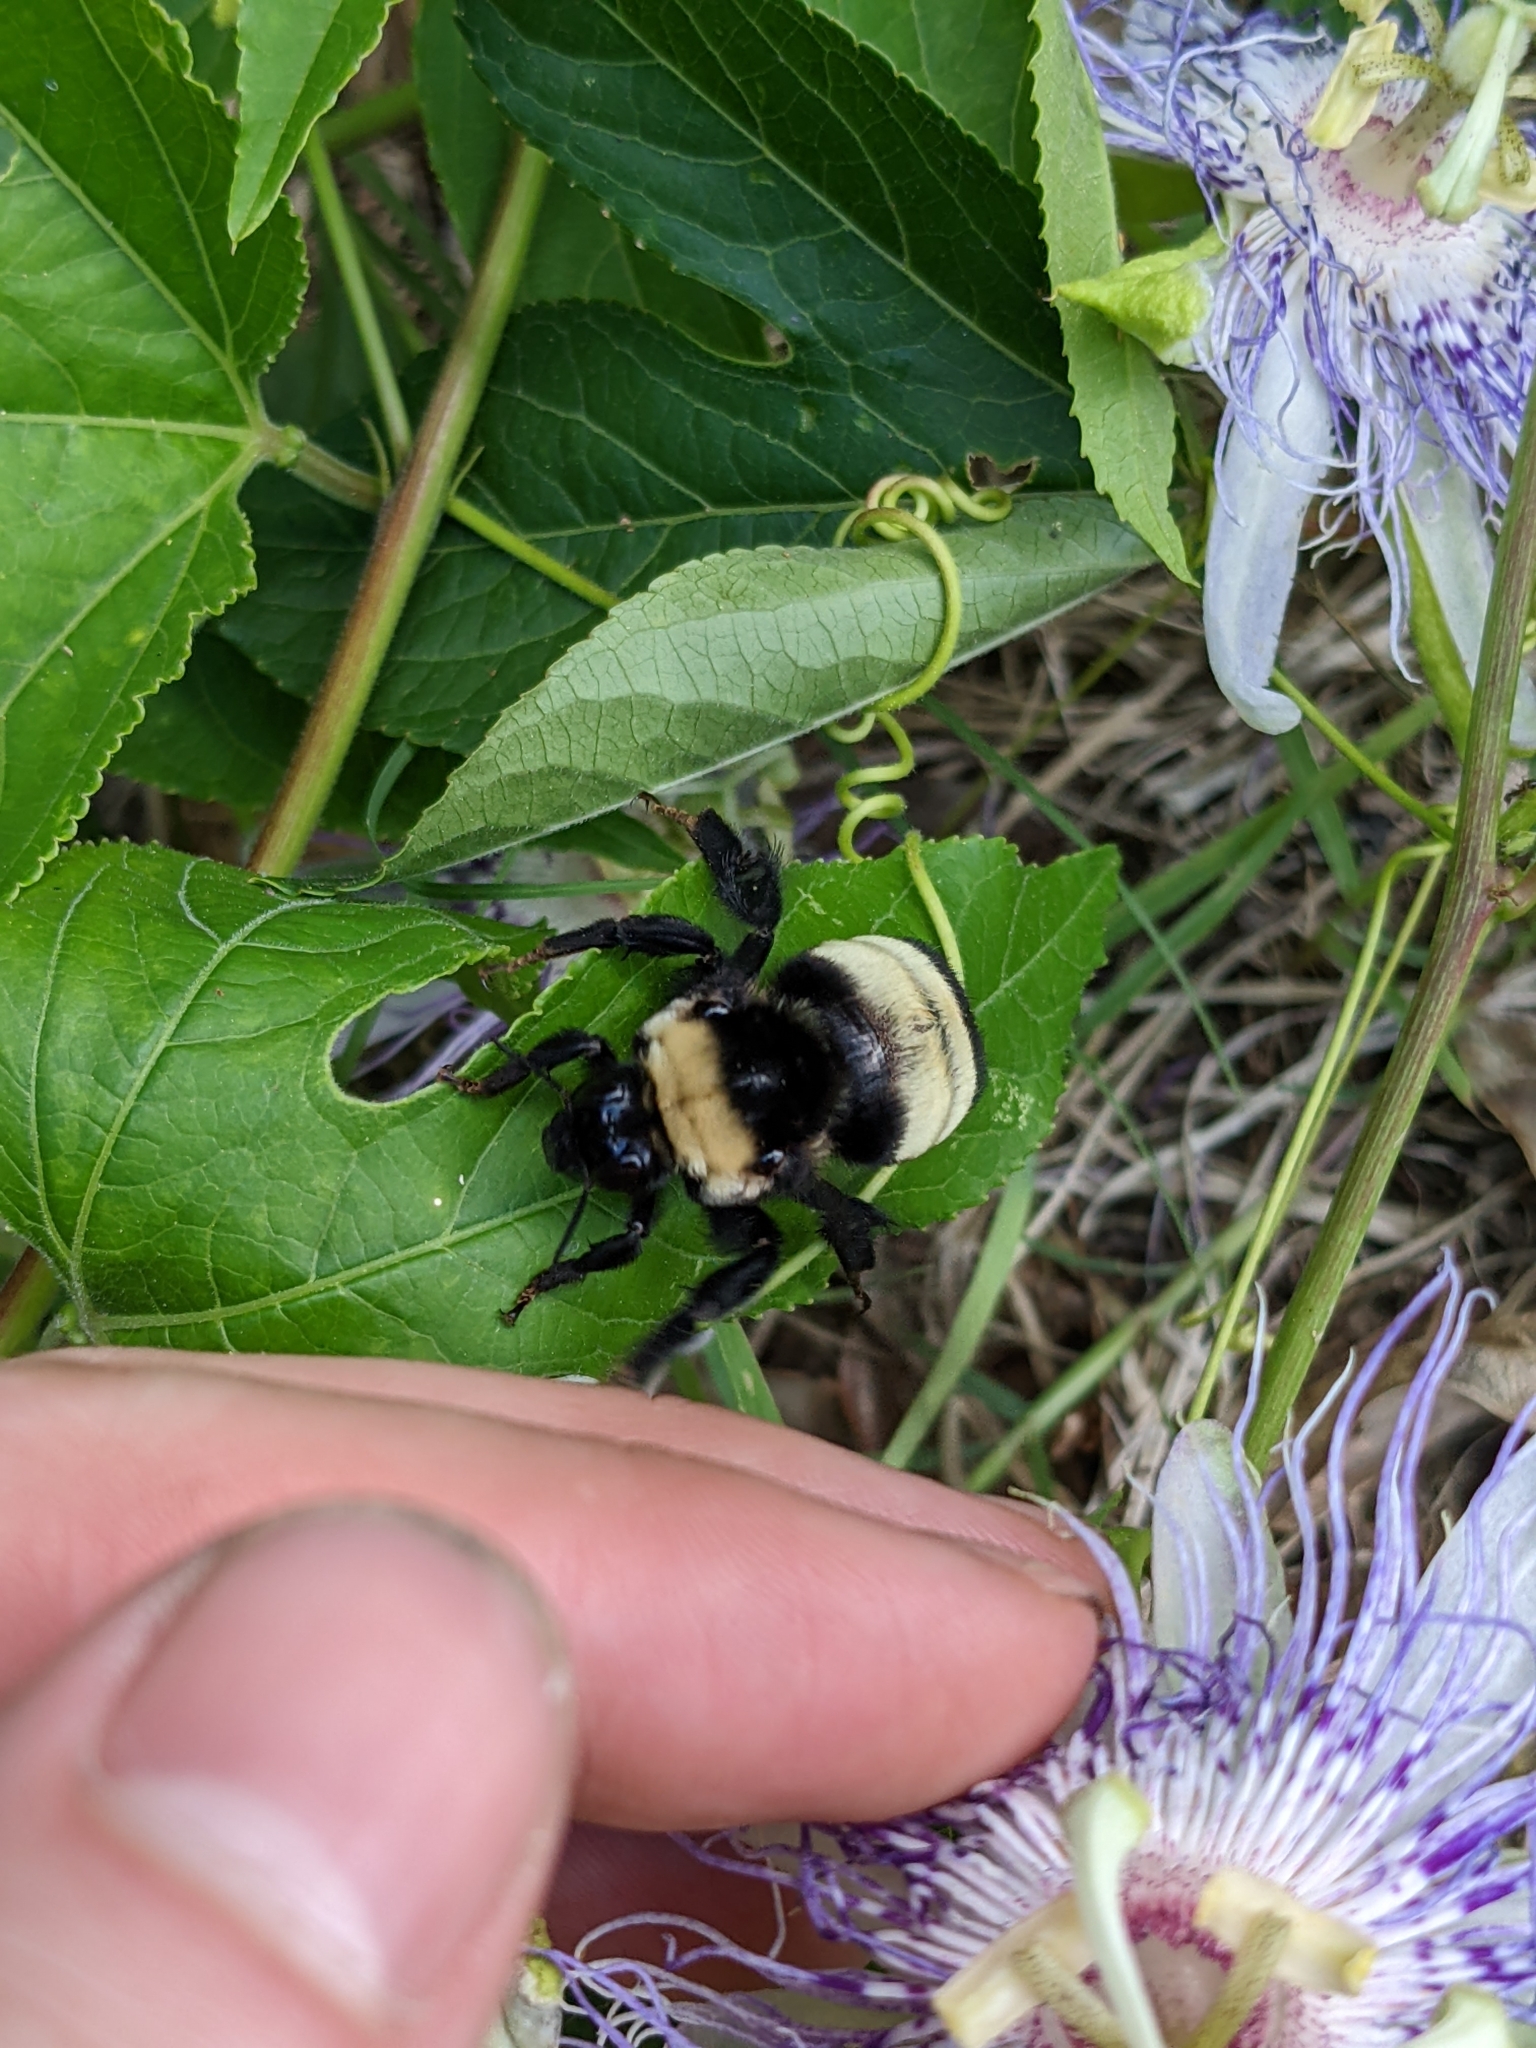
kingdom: Animalia
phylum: Arthropoda
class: Insecta
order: Hymenoptera
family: Apidae
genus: Bombus
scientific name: Bombus auricomus
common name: Black and gold bumble bee
